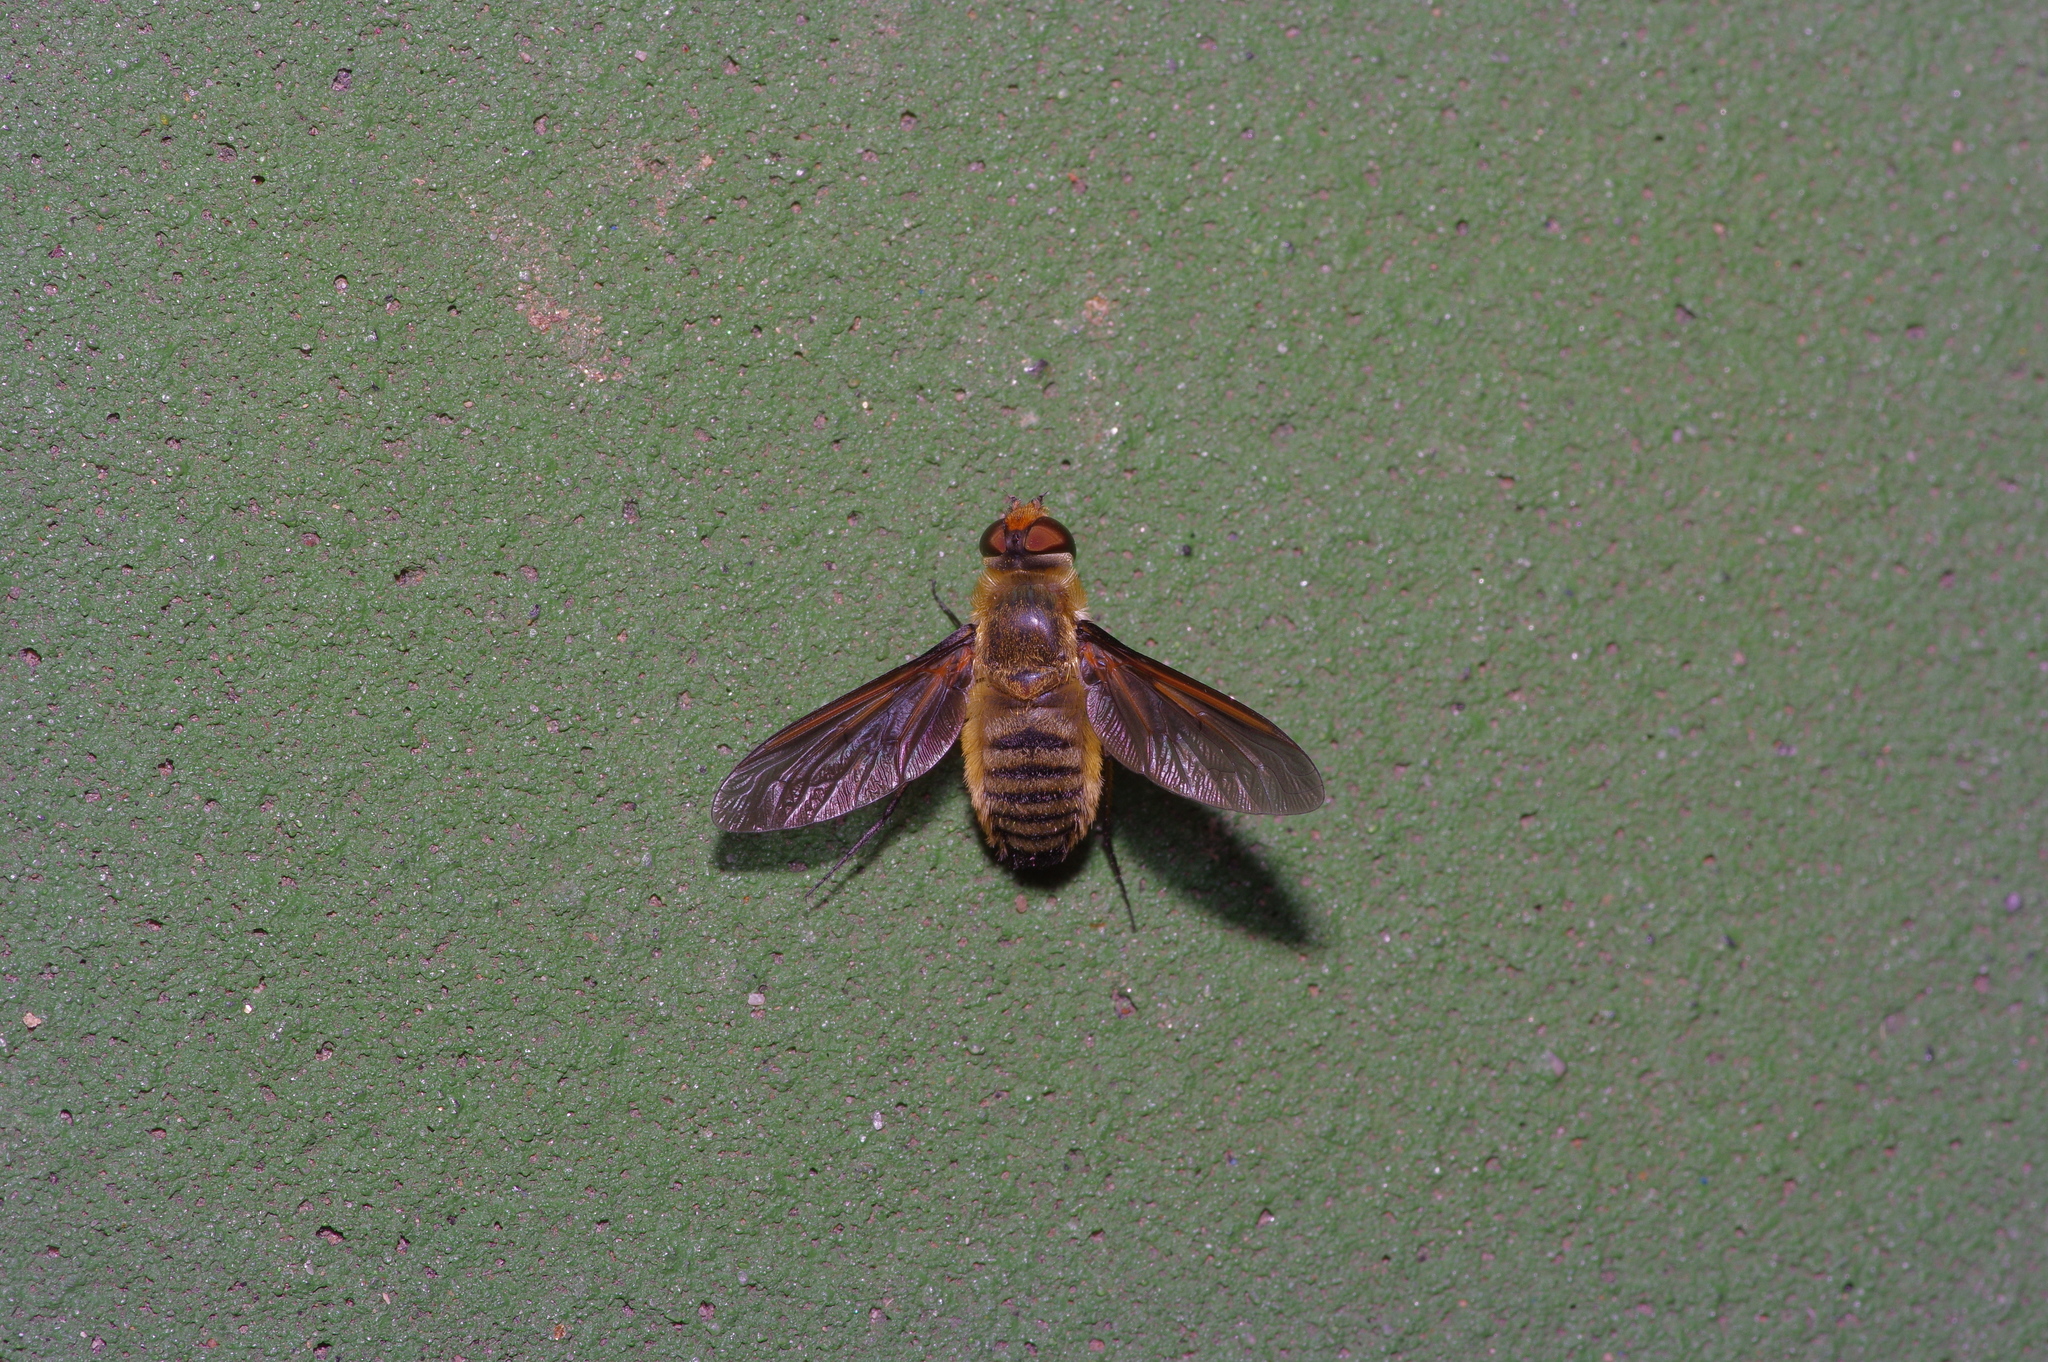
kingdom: Animalia
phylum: Arthropoda
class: Insecta
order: Diptera
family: Bombyliidae
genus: Poecilanthrax
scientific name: Poecilanthrax lucifer
